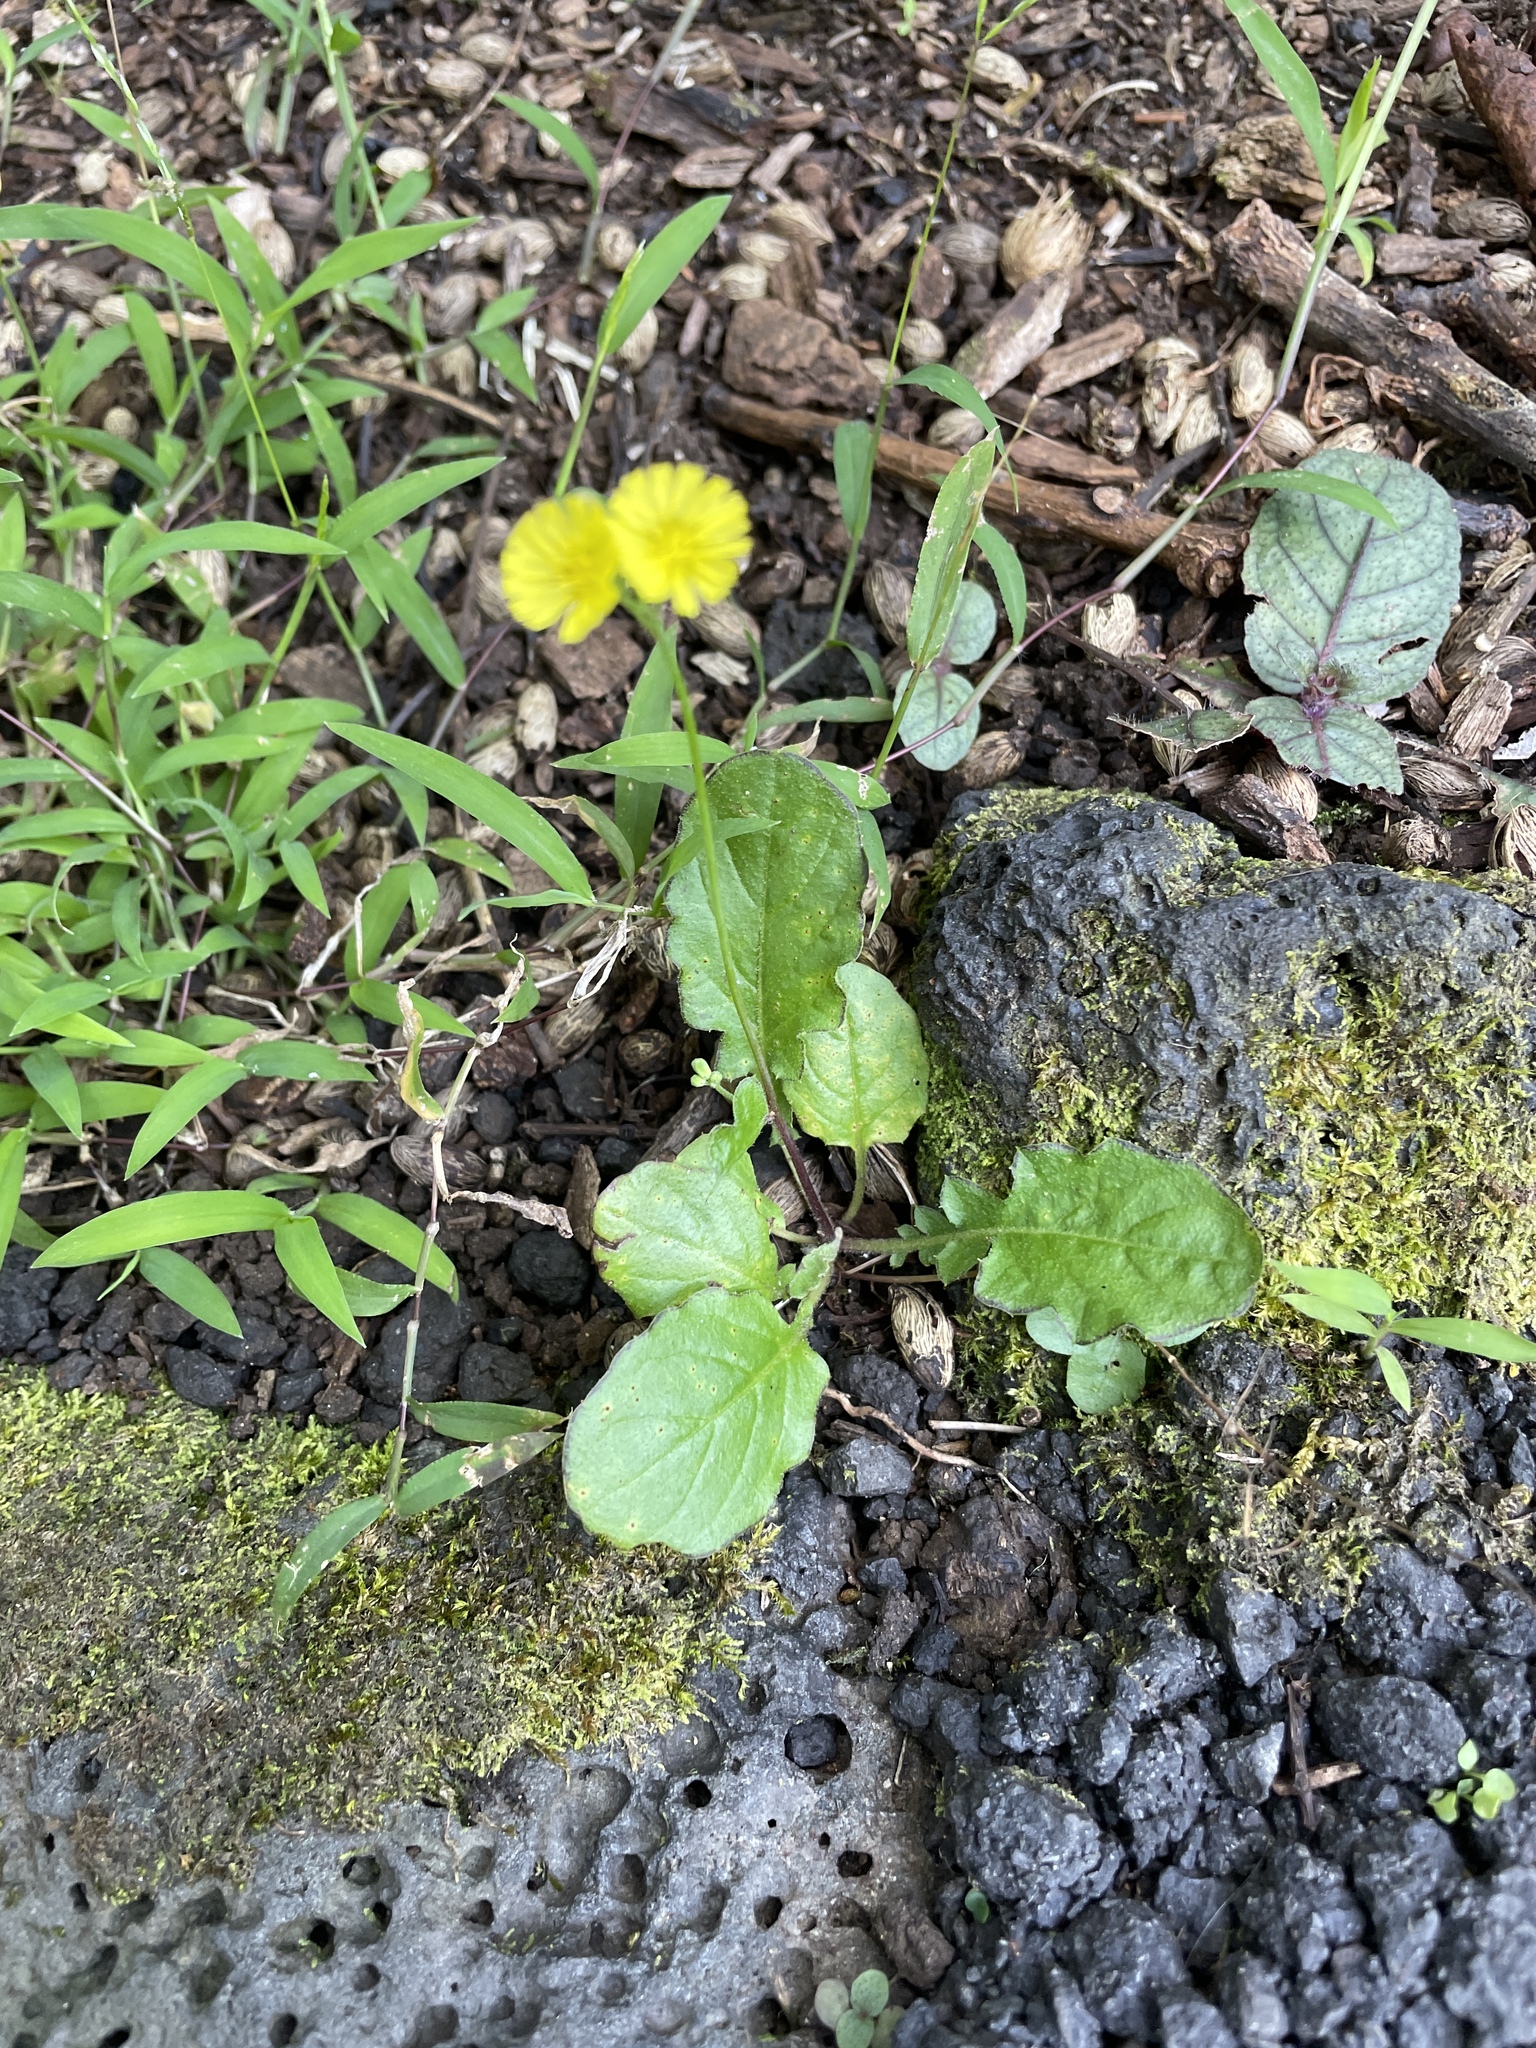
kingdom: Plantae
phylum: Tracheophyta
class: Magnoliopsida
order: Asterales
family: Asteraceae
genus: Youngia
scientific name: Youngia japonica
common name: Oriental false hawksbeard
